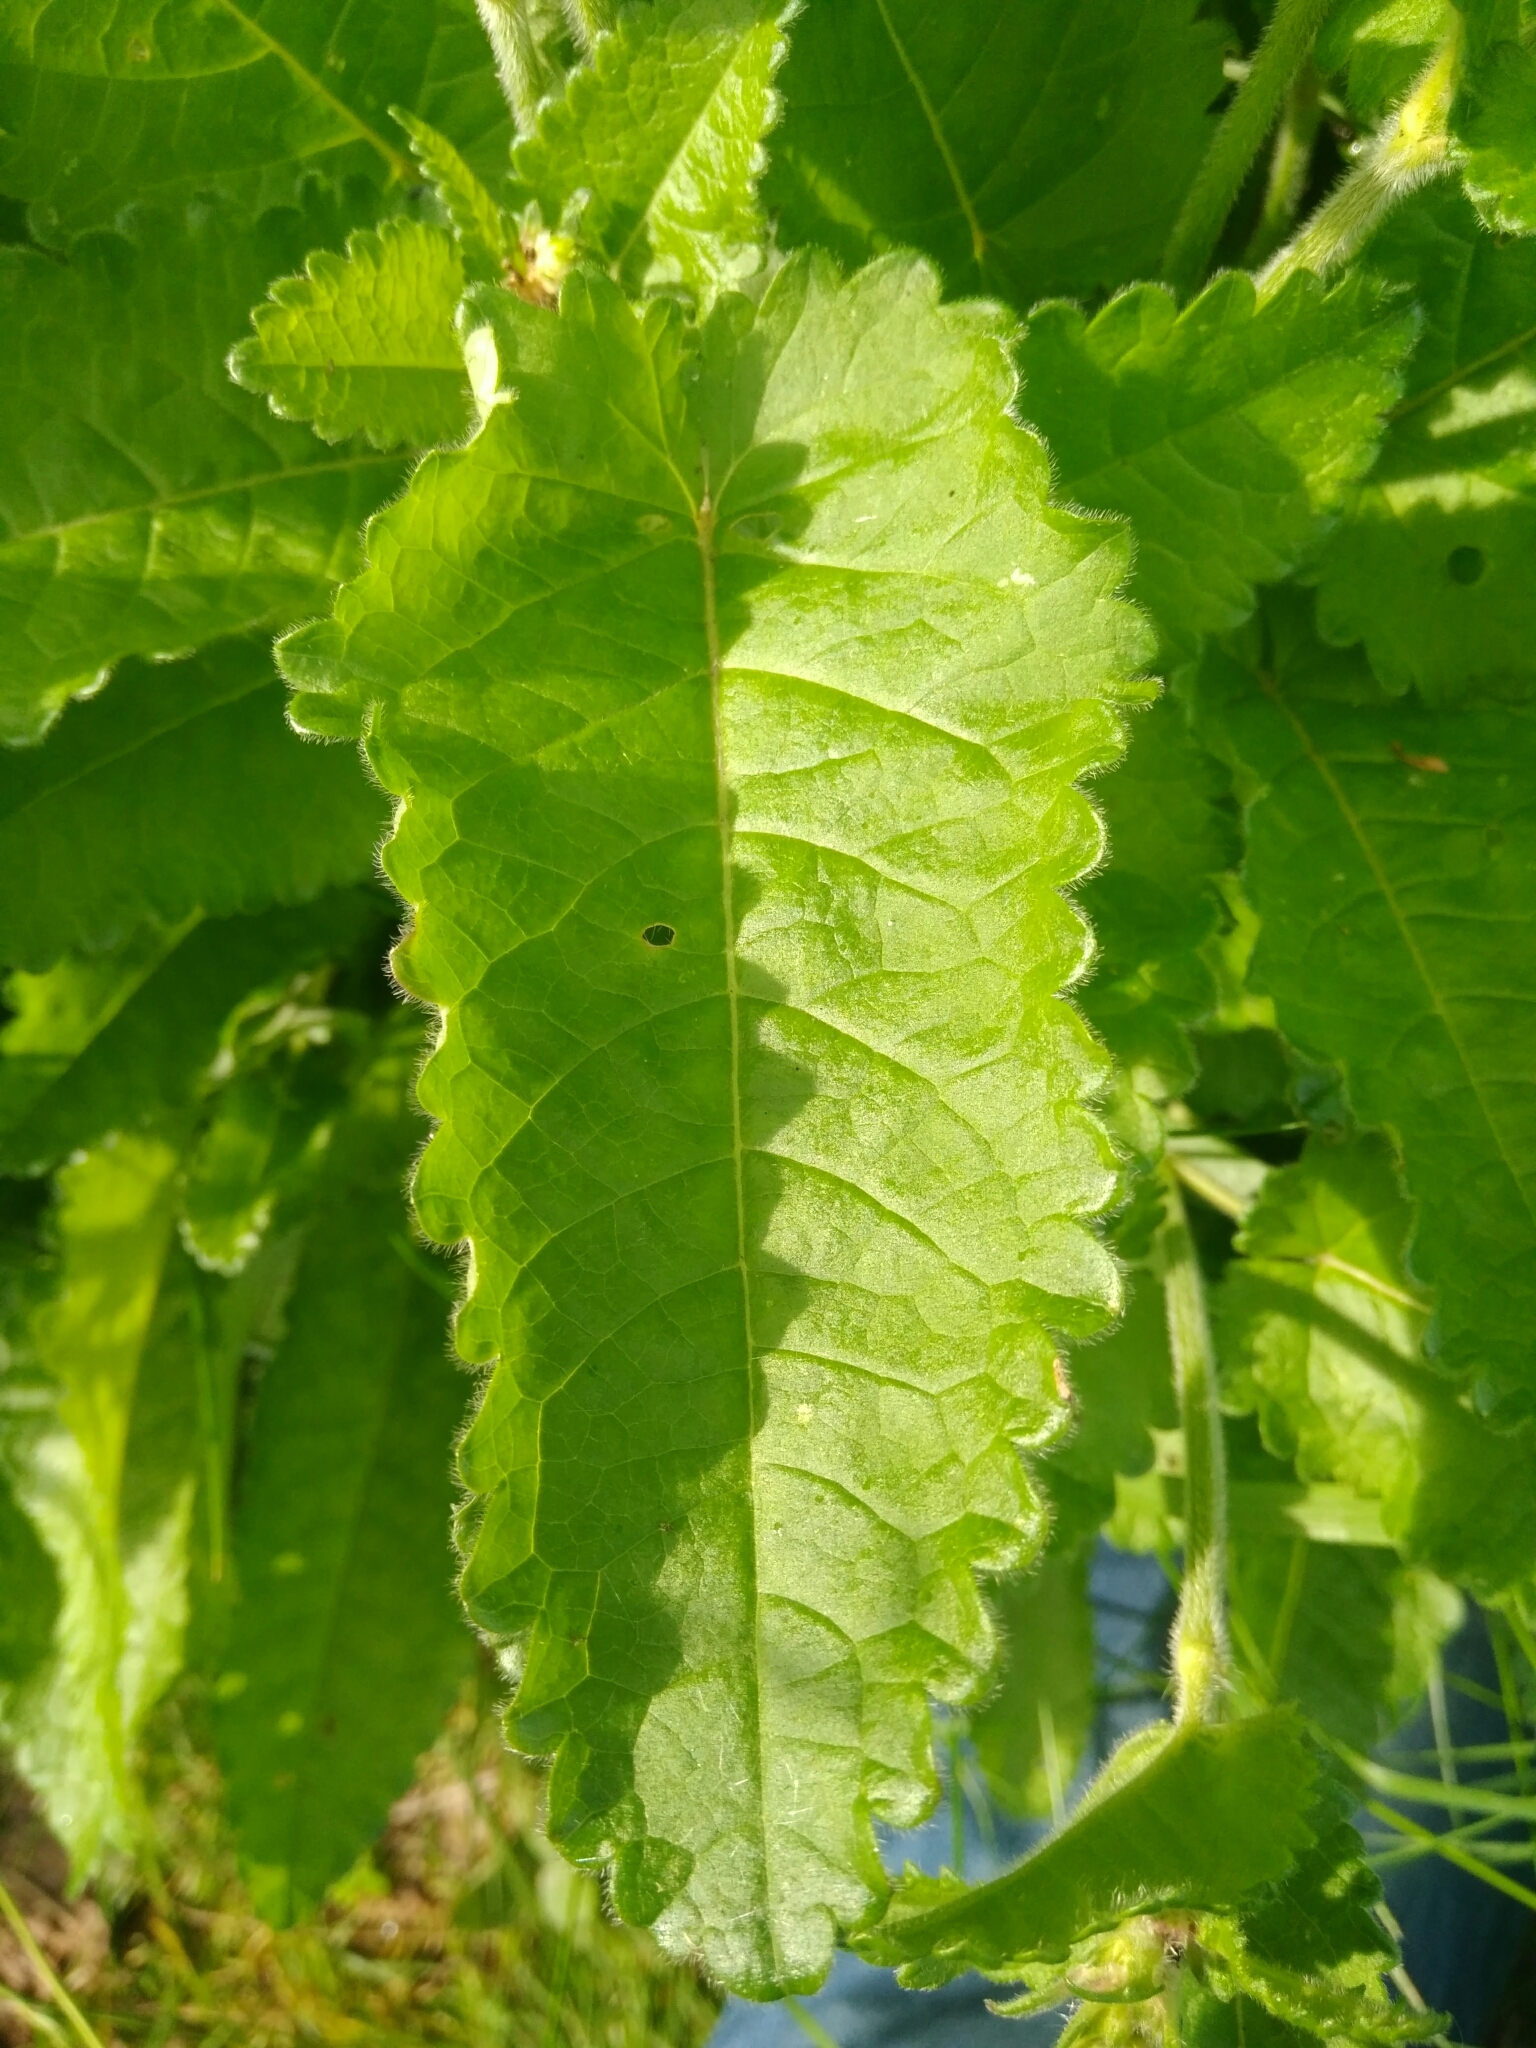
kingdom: Plantae
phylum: Tracheophyta
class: Magnoliopsida
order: Lamiales
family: Lamiaceae
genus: Betonica
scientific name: Betonica officinalis
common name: Bishop's-wort
